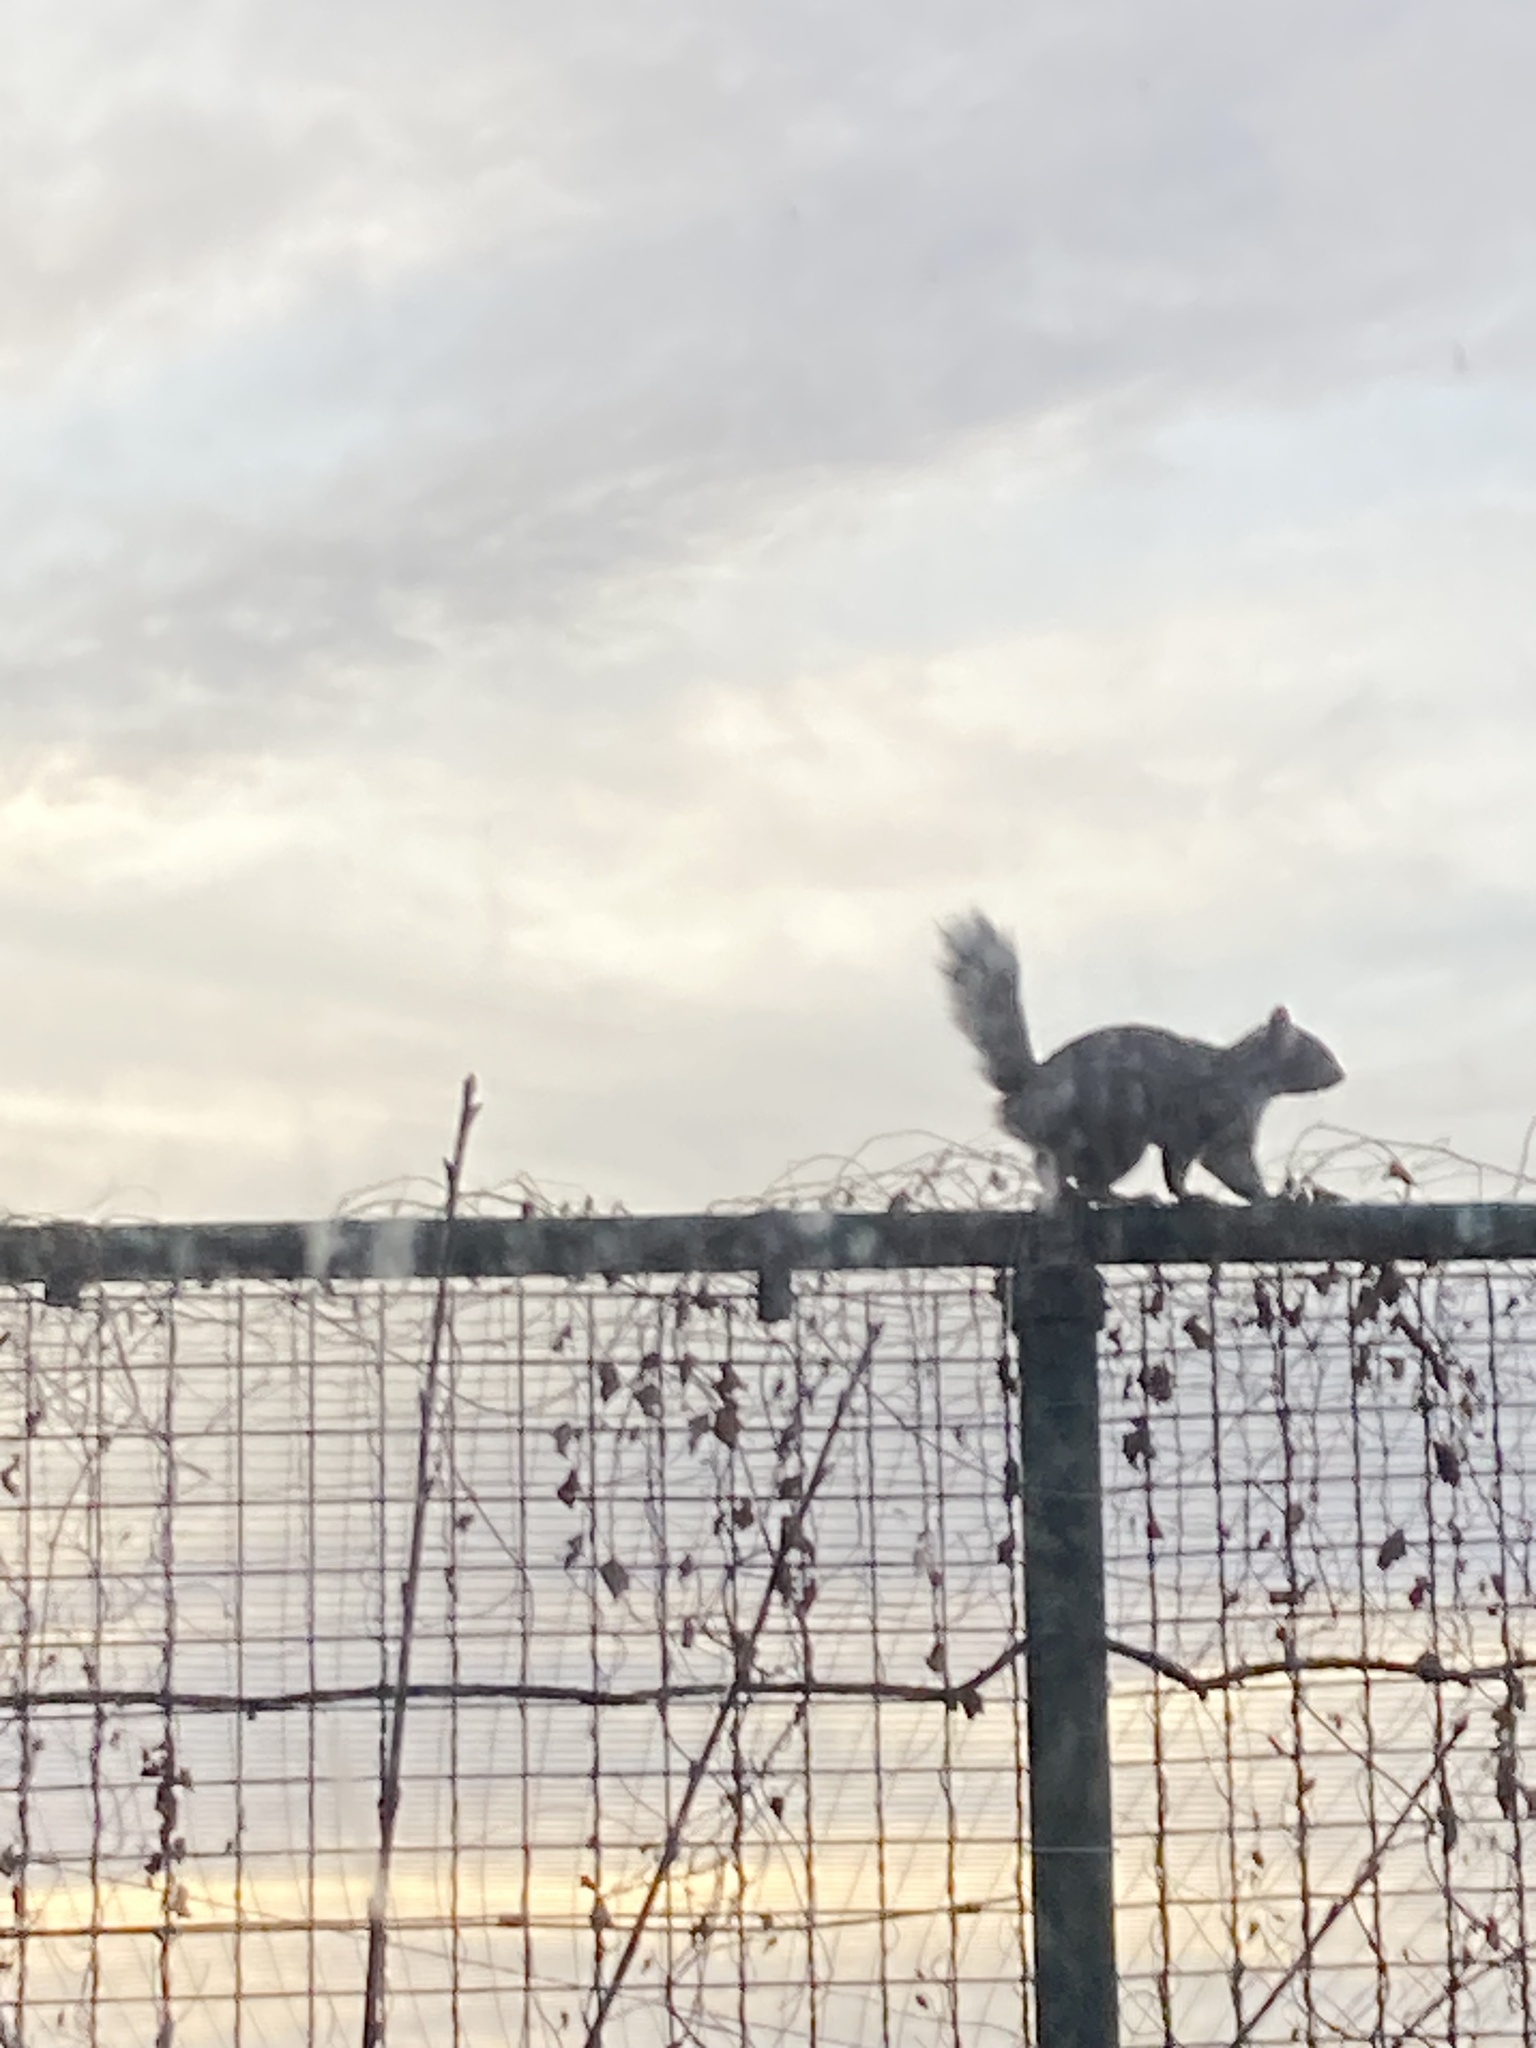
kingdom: Animalia
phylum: Chordata
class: Mammalia
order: Rodentia
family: Sciuridae
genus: Sciurus
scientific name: Sciurus carolinensis
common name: Eastern gray squirrel
